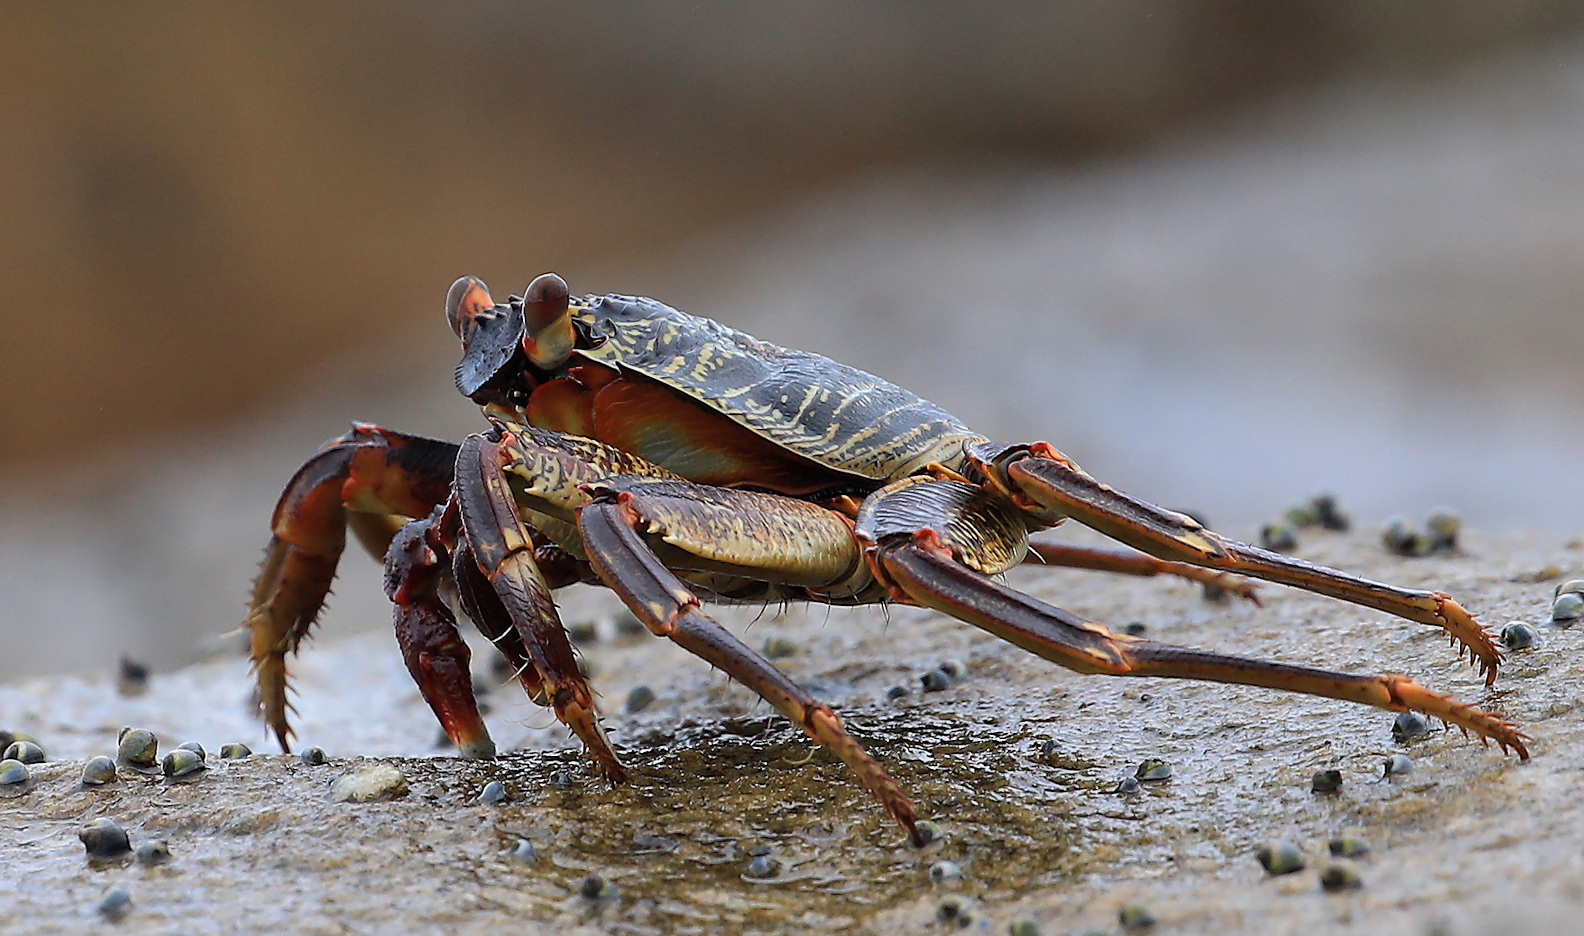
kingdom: Animalia
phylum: Arthropoda
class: Malacostraca
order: Decapoda
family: Grapsidae
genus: Grapsus
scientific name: Grapsus tenuicrustatus
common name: Natal lightfoot crab
